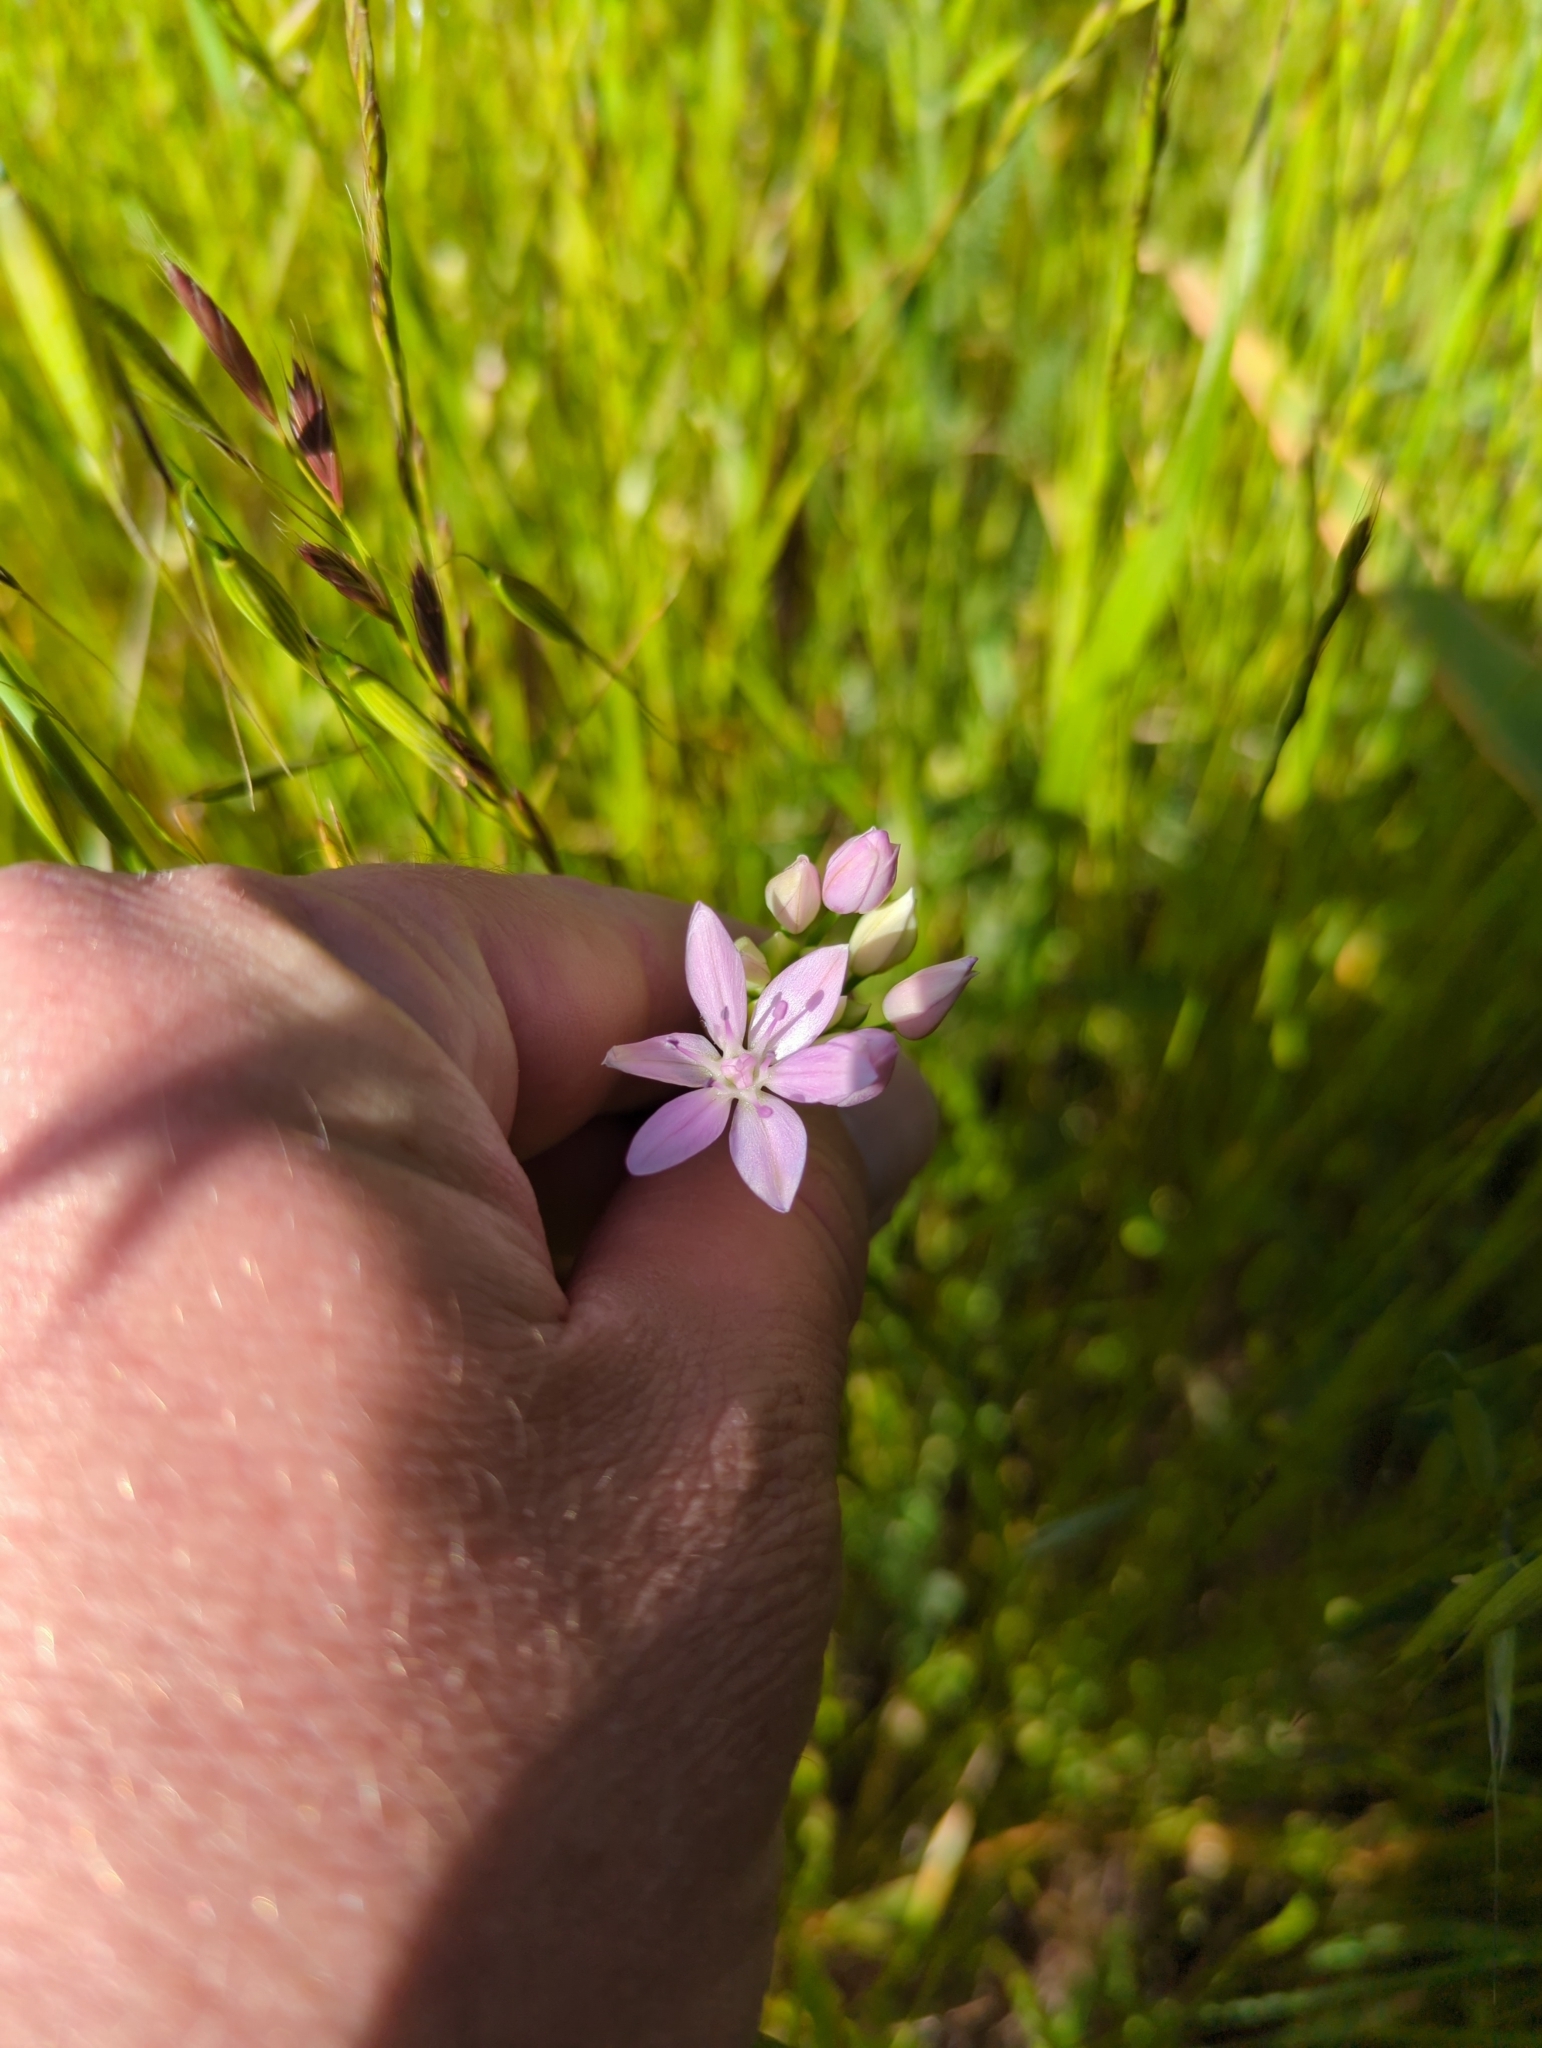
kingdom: Plantae
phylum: Tracheophyta
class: Liliopsida
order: Asparagales
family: Amaryllidaceae
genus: Allium
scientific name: Allium unifolium
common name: American garlic
